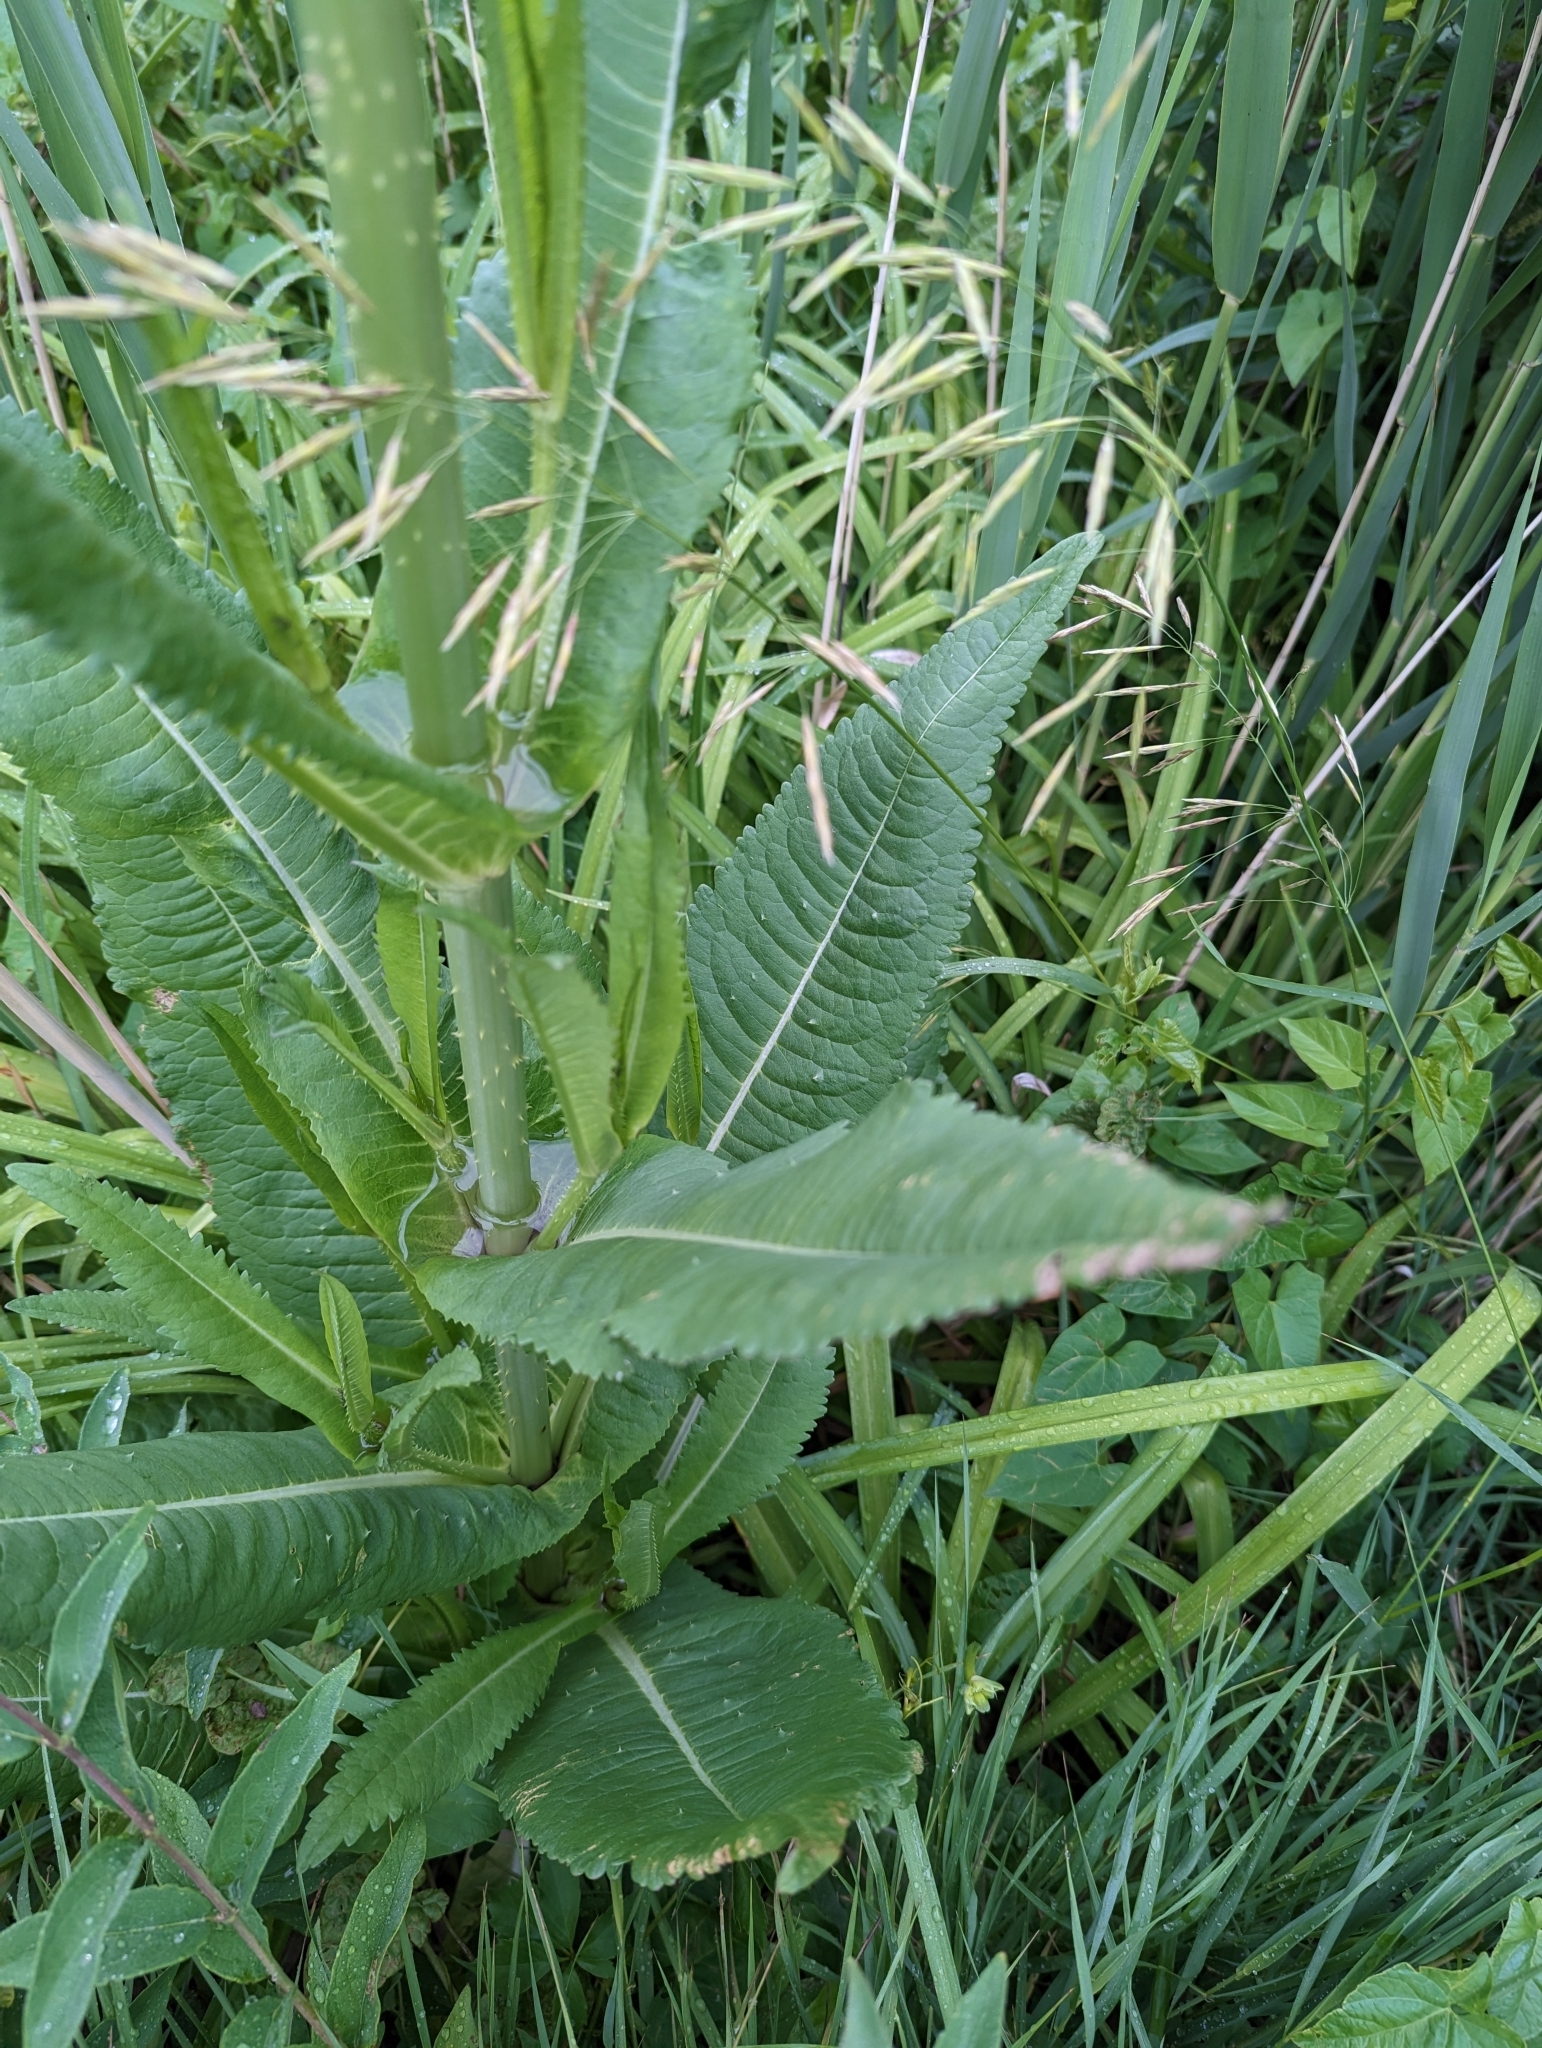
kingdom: Plantae
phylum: Tracheophyta
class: Magnoliopsida
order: Dipsacales
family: Caprifoliaceae
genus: Dipsacus
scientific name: Dipsacus fullonum
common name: Teasel
